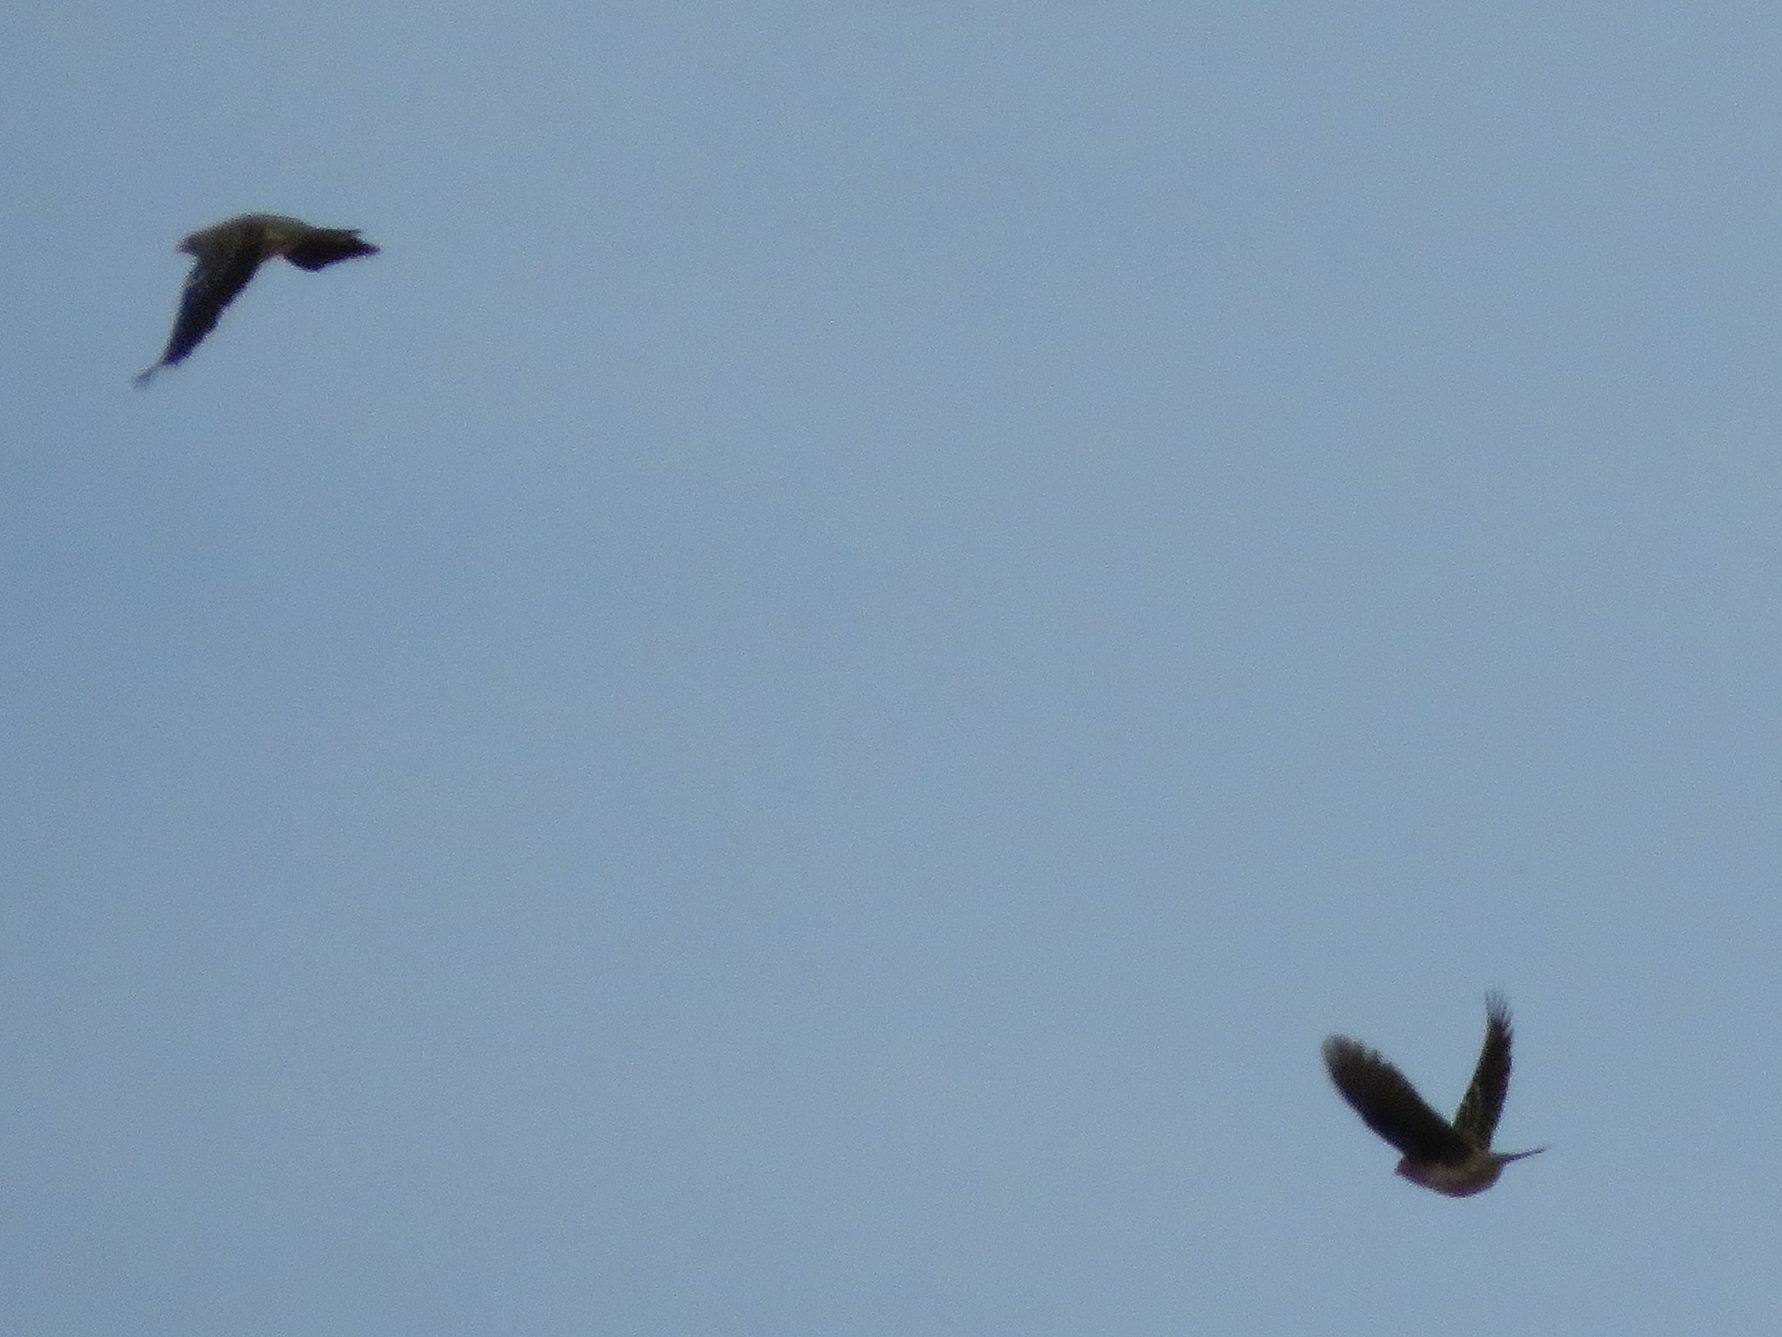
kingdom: Animalia
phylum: Chordata
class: Aves
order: Passeriformes
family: Thraupidae
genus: Rhopospina
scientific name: Rhopospina fruticeti
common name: Mourning sierra finch
